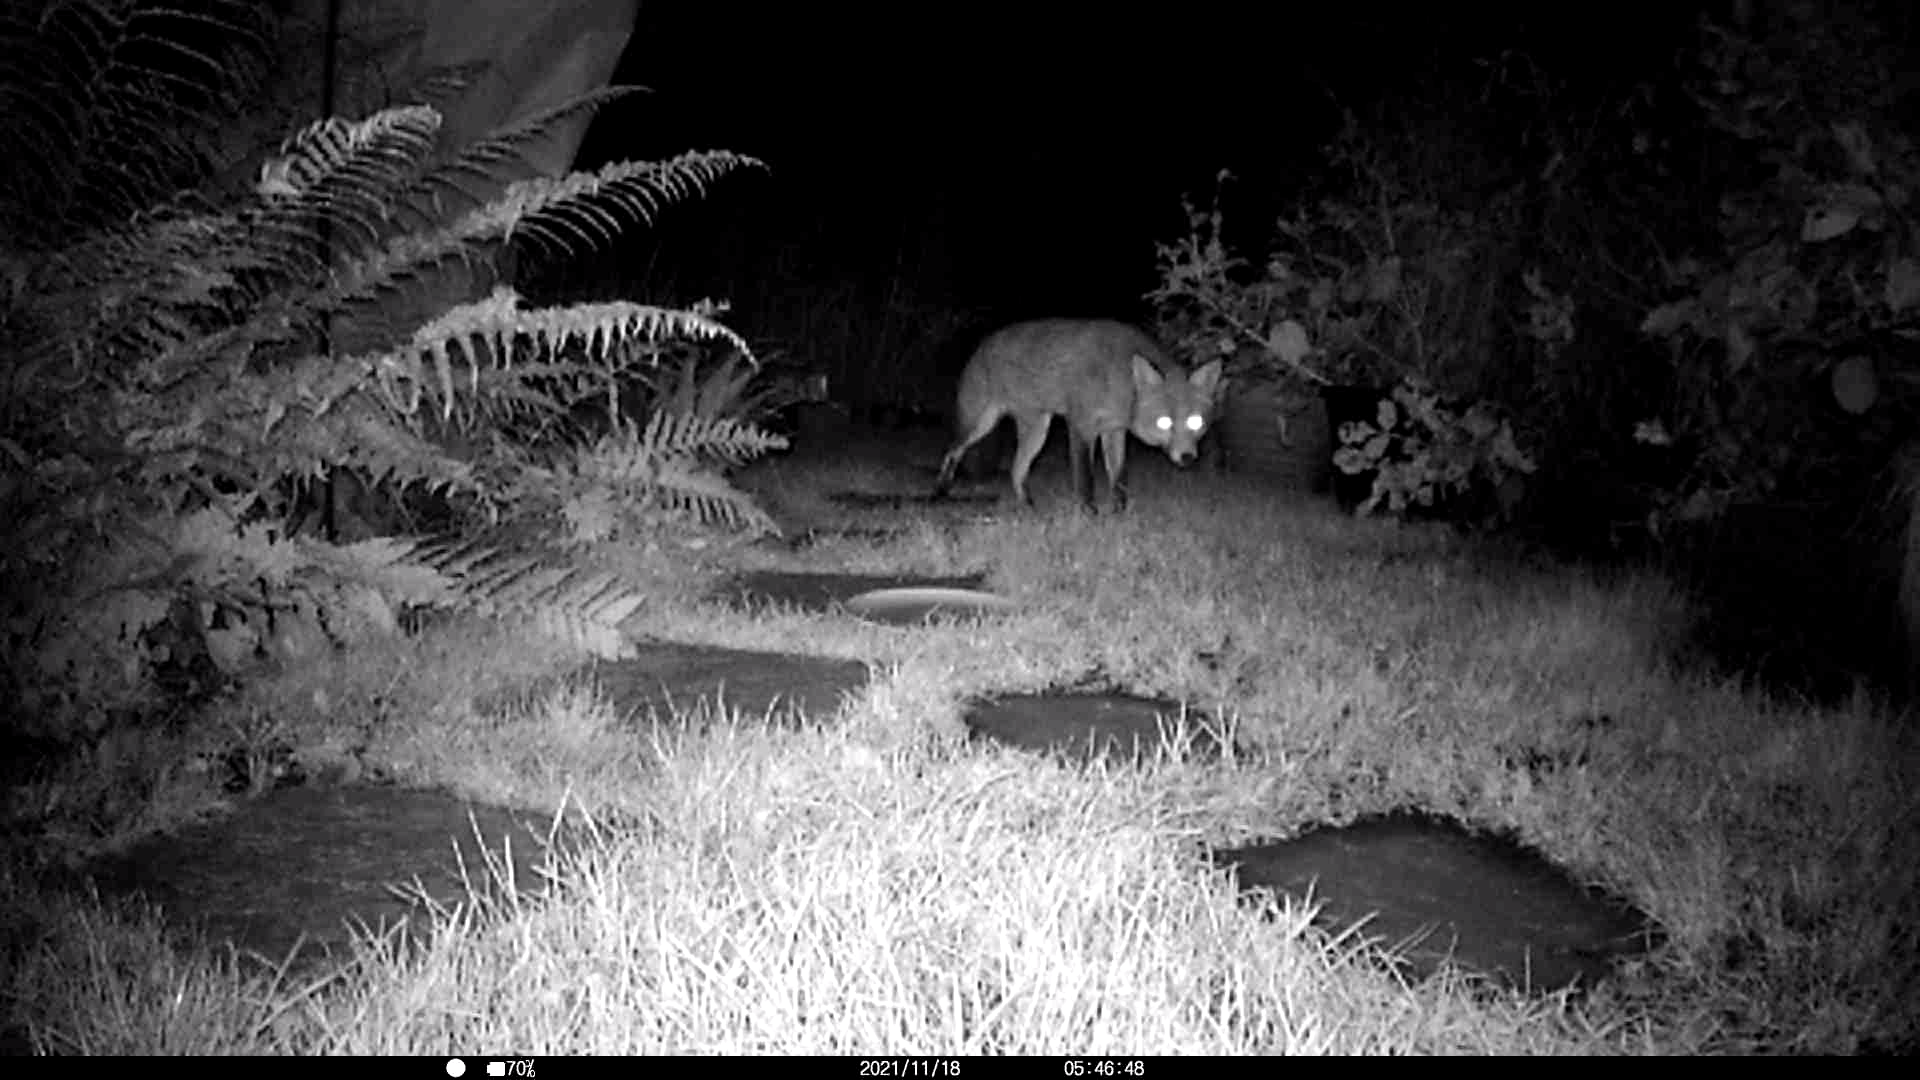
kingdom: Animalia
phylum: Chordata
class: Mammalia
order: Carnivora
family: Canidae
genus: Vulpes
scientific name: Vulpes vulpes
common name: Red fox
